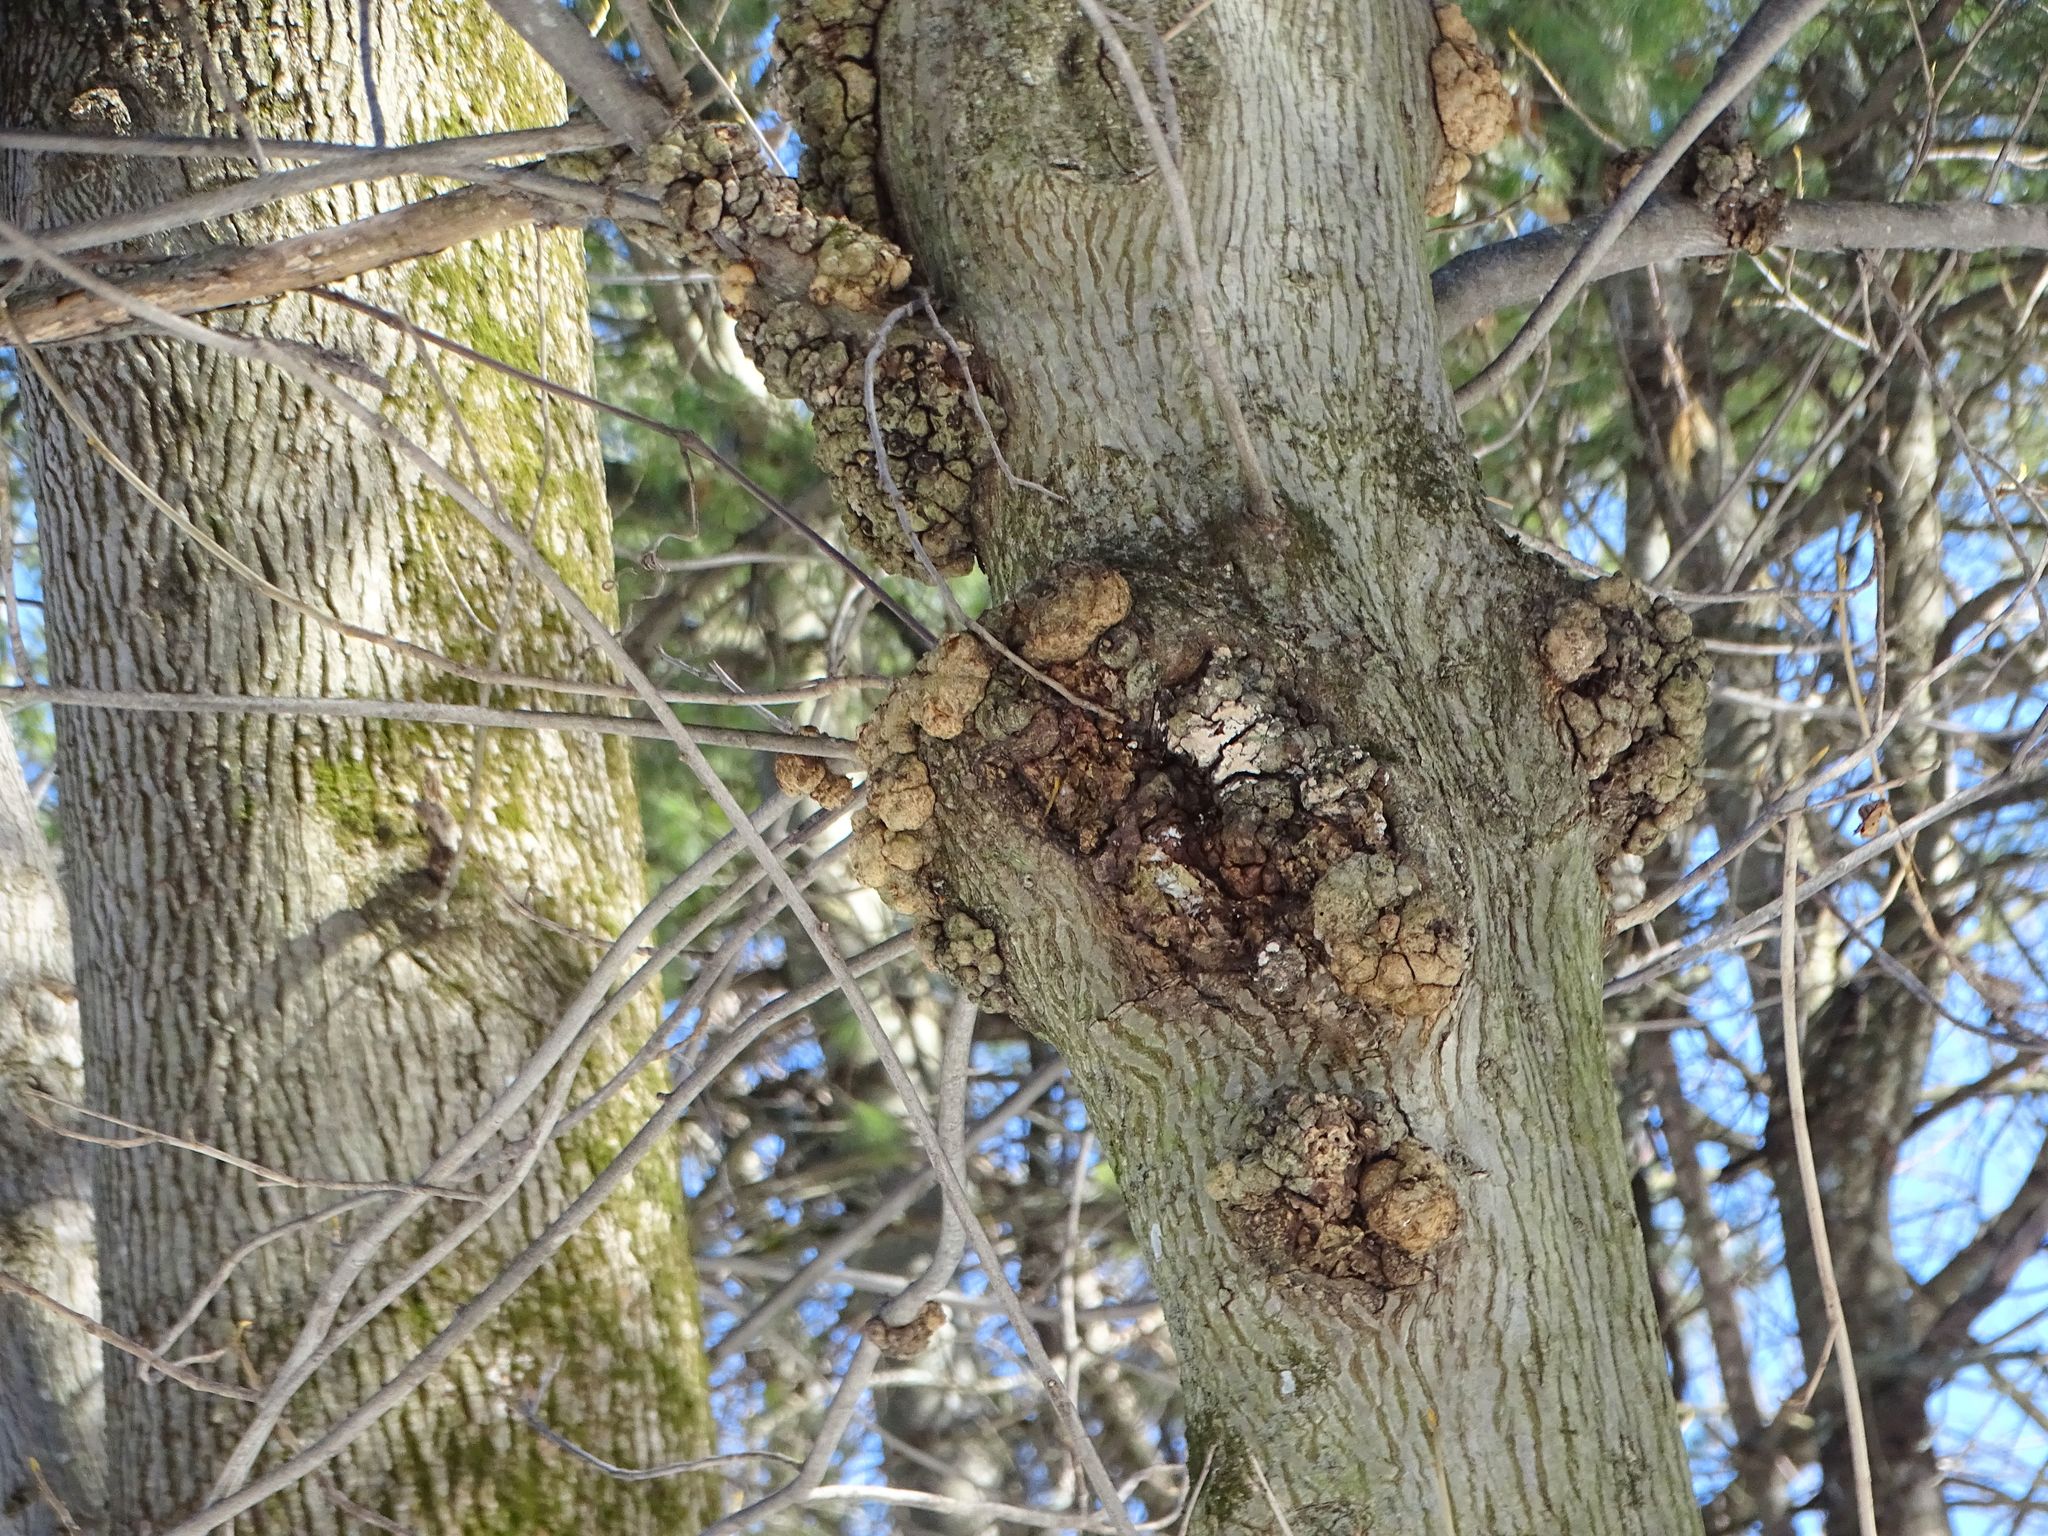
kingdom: Plantae
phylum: Tracheophyta
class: Magnoliopsida
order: Fagales
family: Juglandaceae
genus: Carya
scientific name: Carya cordiformis
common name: Bitternut hickory
